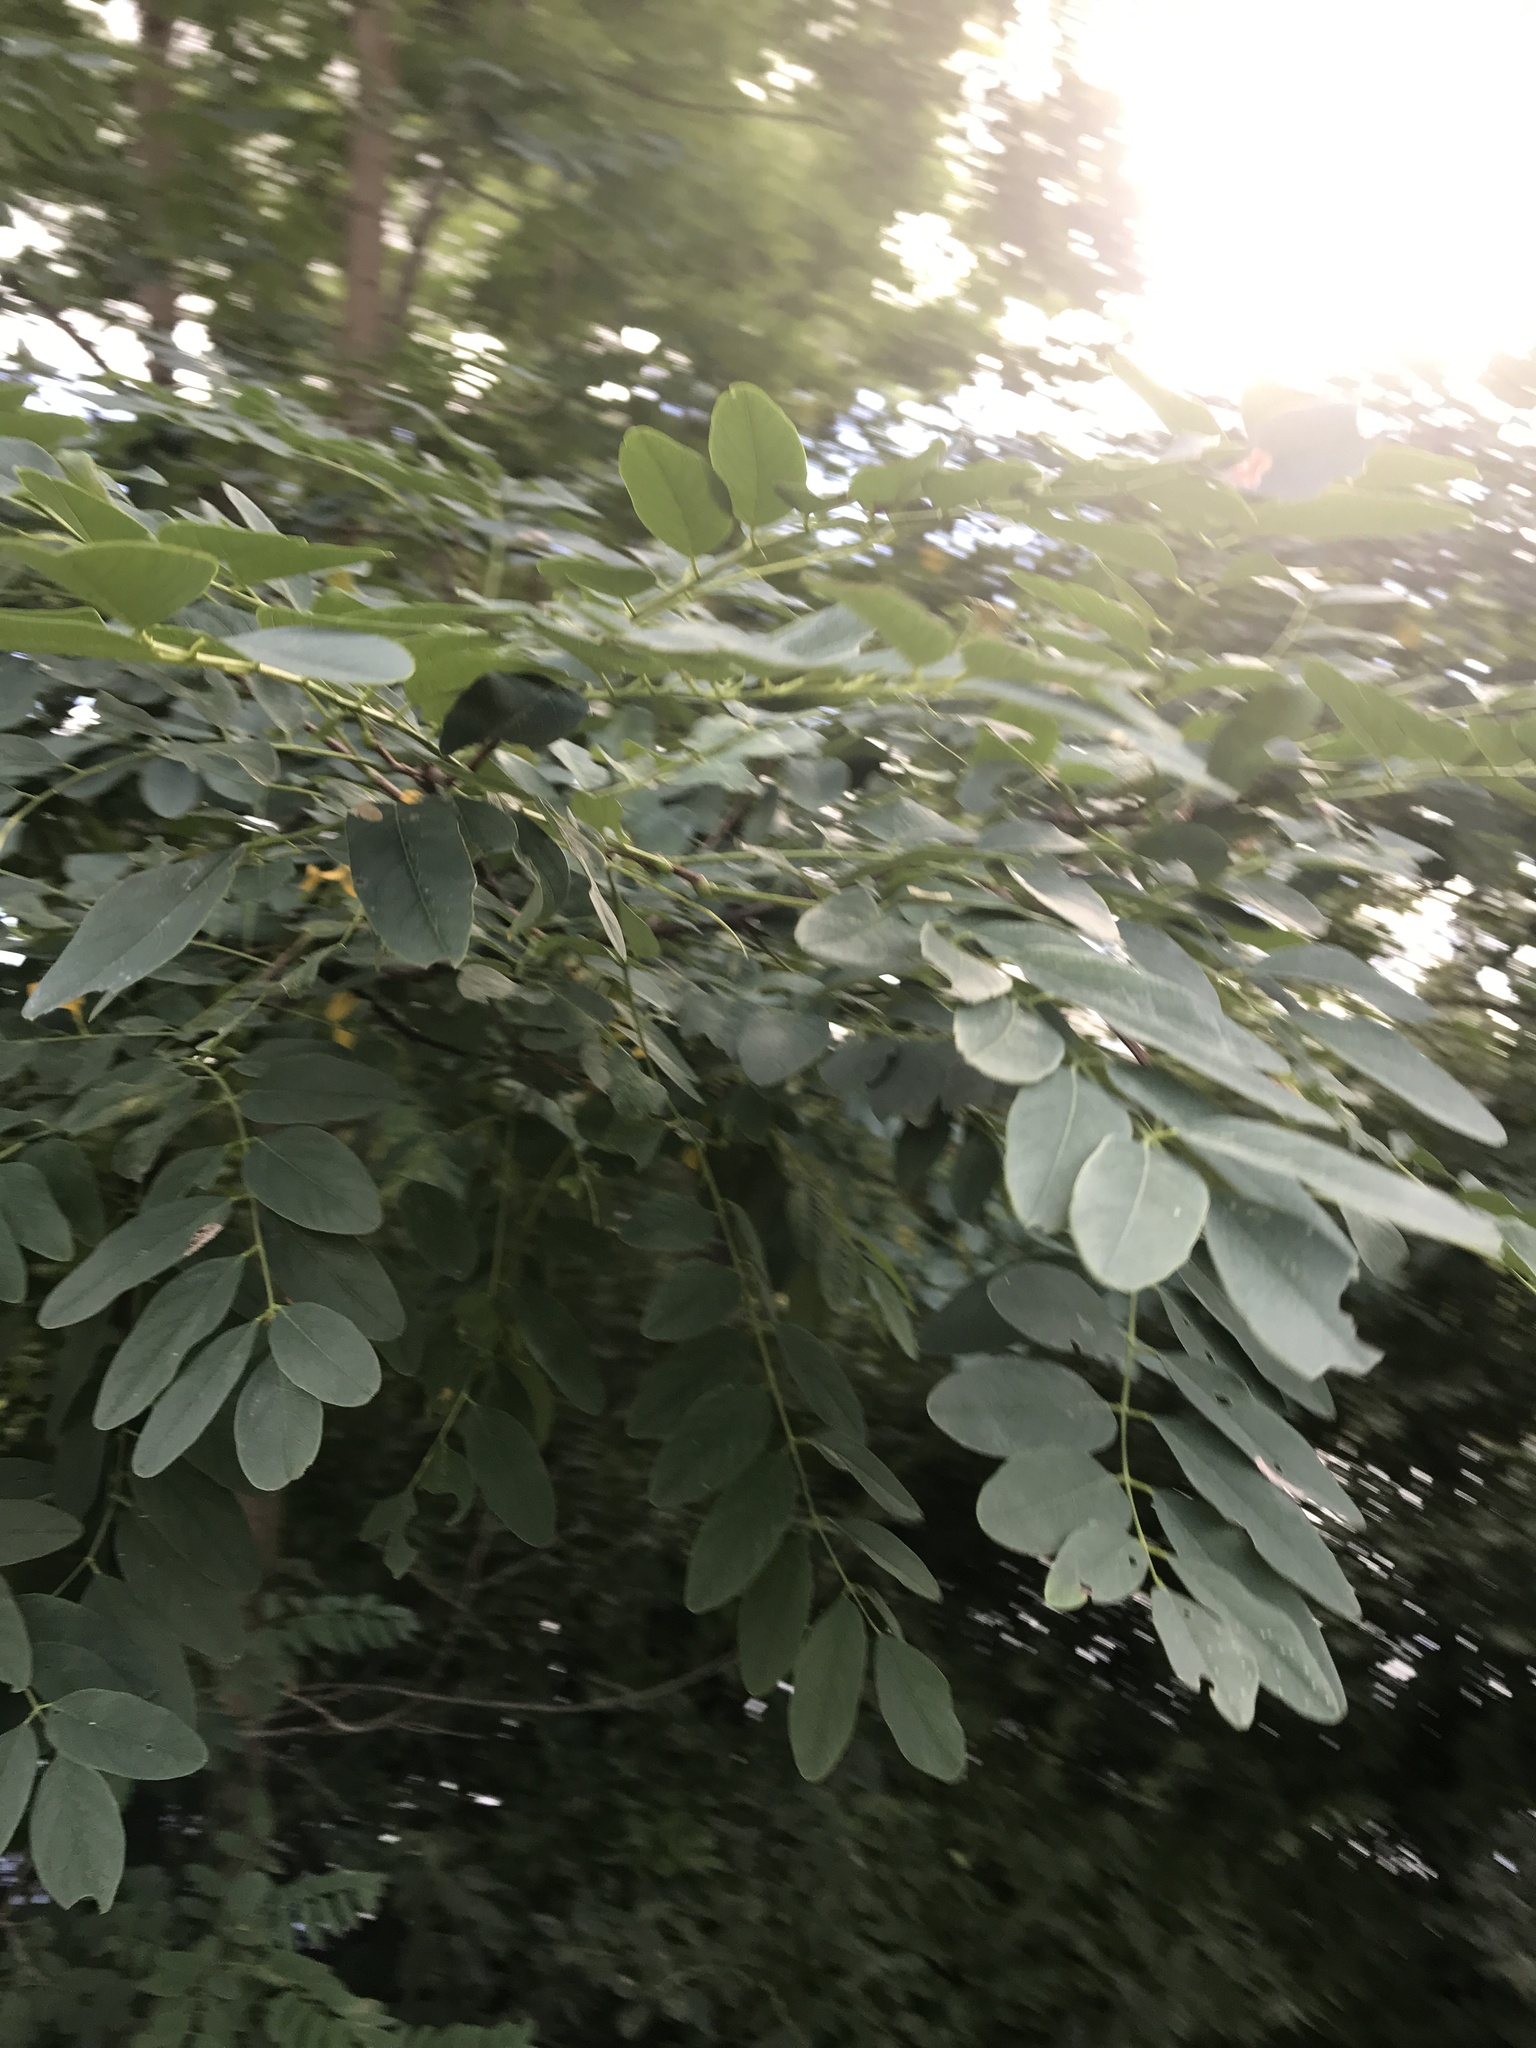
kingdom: Plantae
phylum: Tracheophyta
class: Magnoliopsida
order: Fabales
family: Fabaceae
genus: Robinia
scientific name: Robinia pseudoacacia
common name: Black locust
